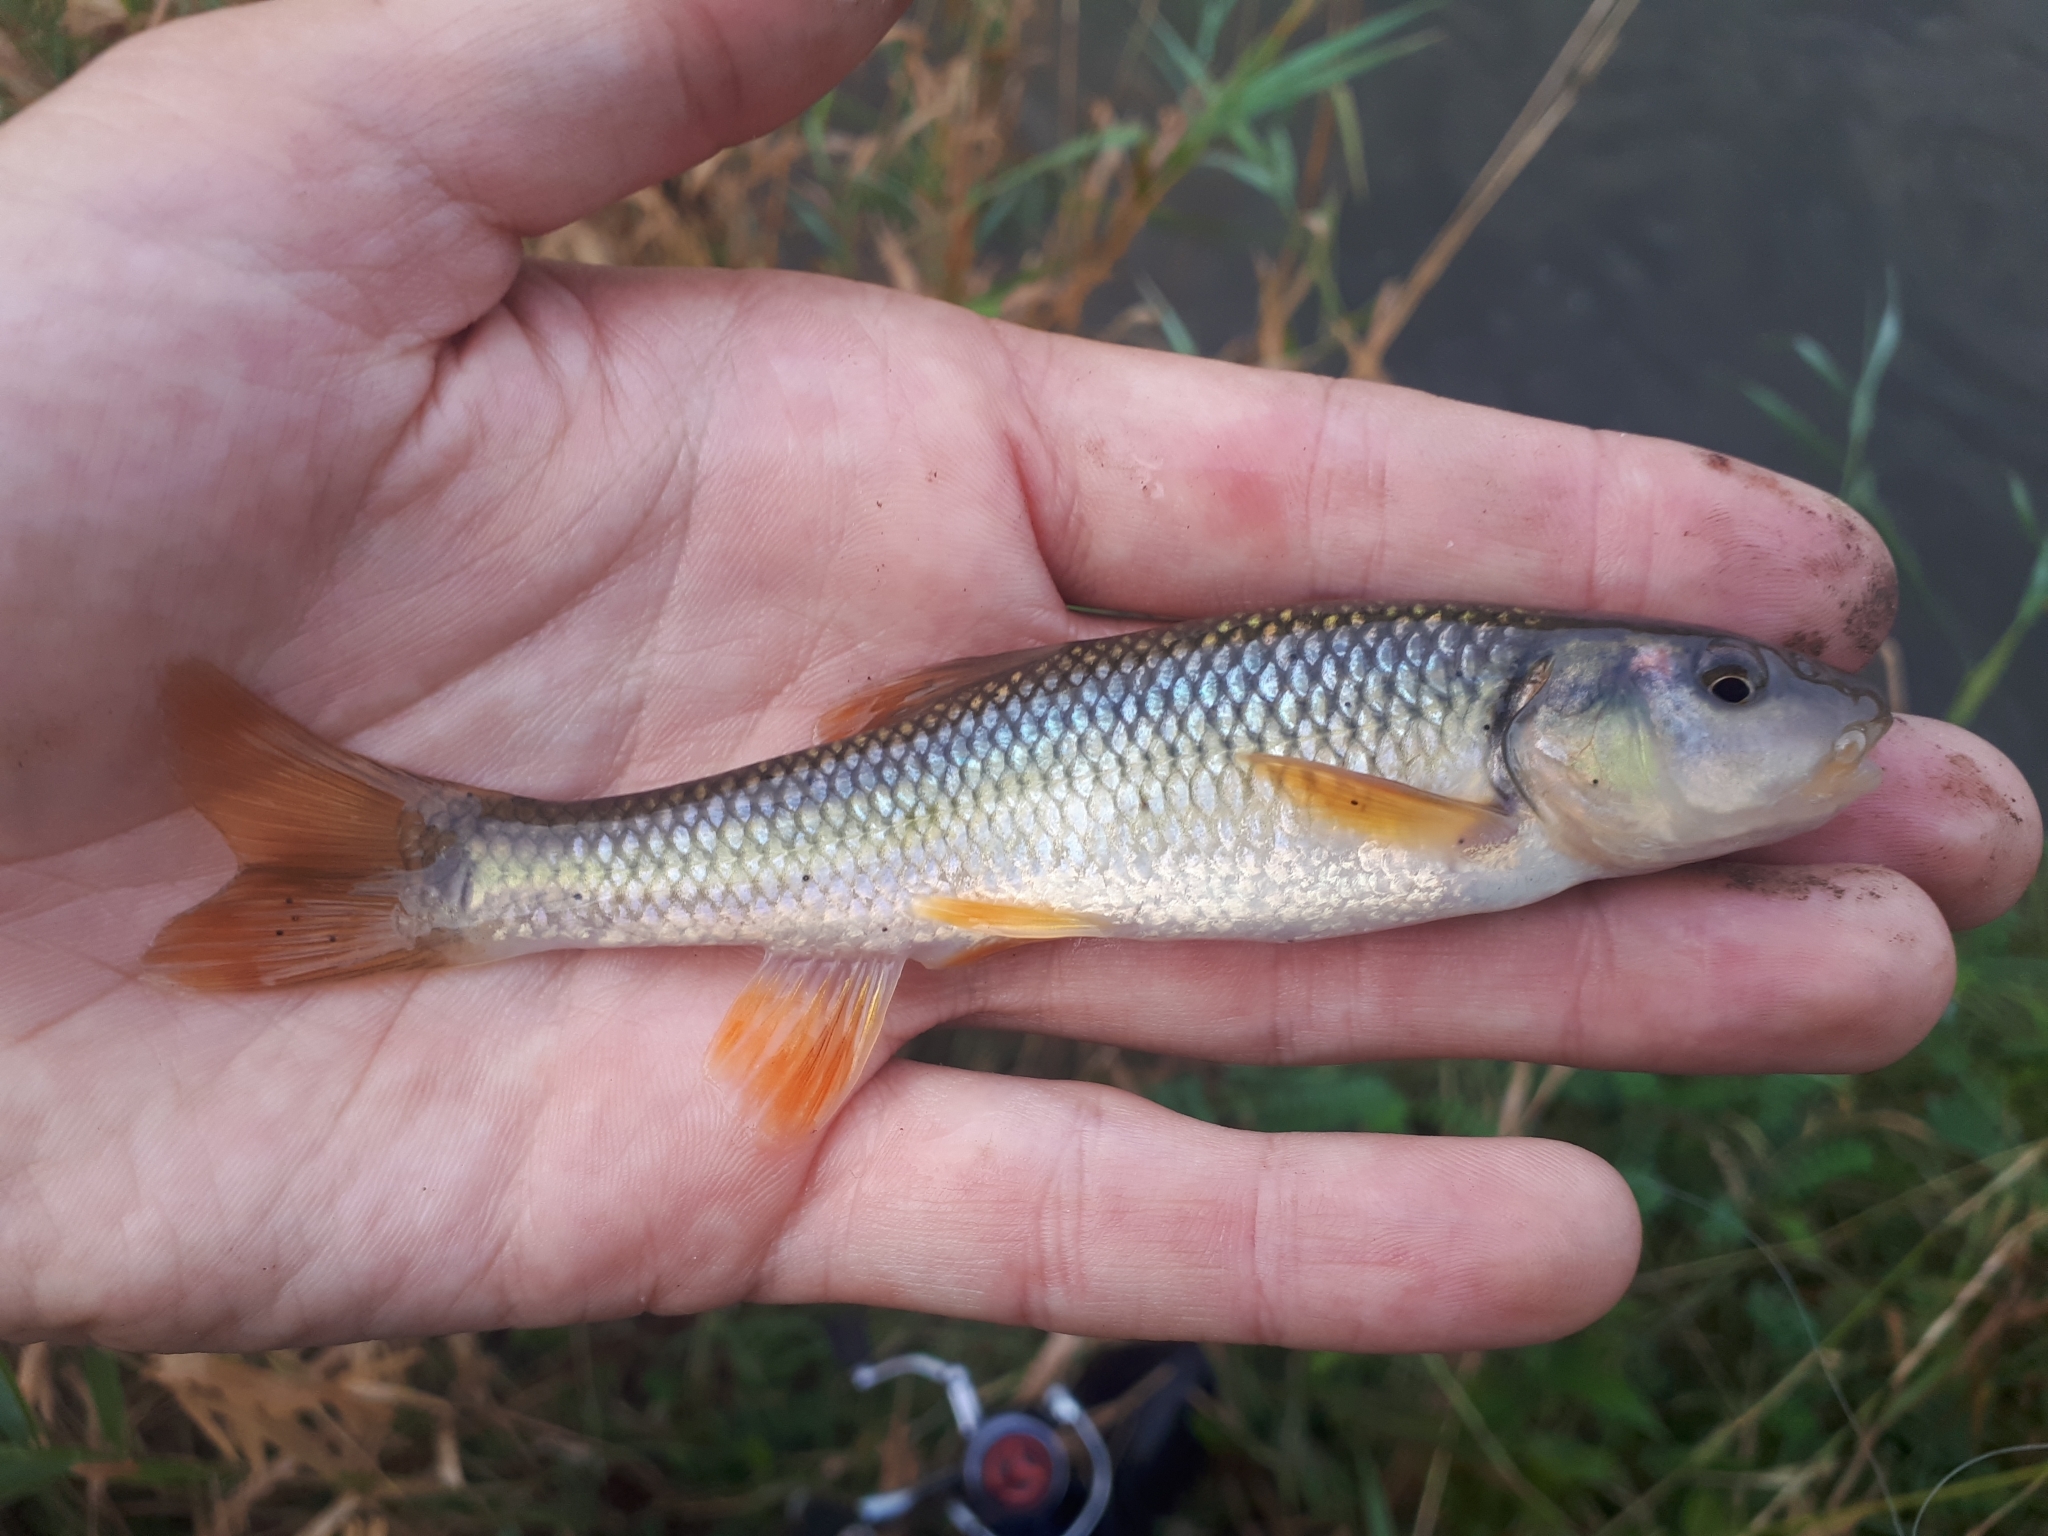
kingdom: Animalia
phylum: Chordata
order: Cypriniformes
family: Cyprinidae
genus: Nocomis
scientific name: Nocomis biguttatus
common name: Hornyhead chub
